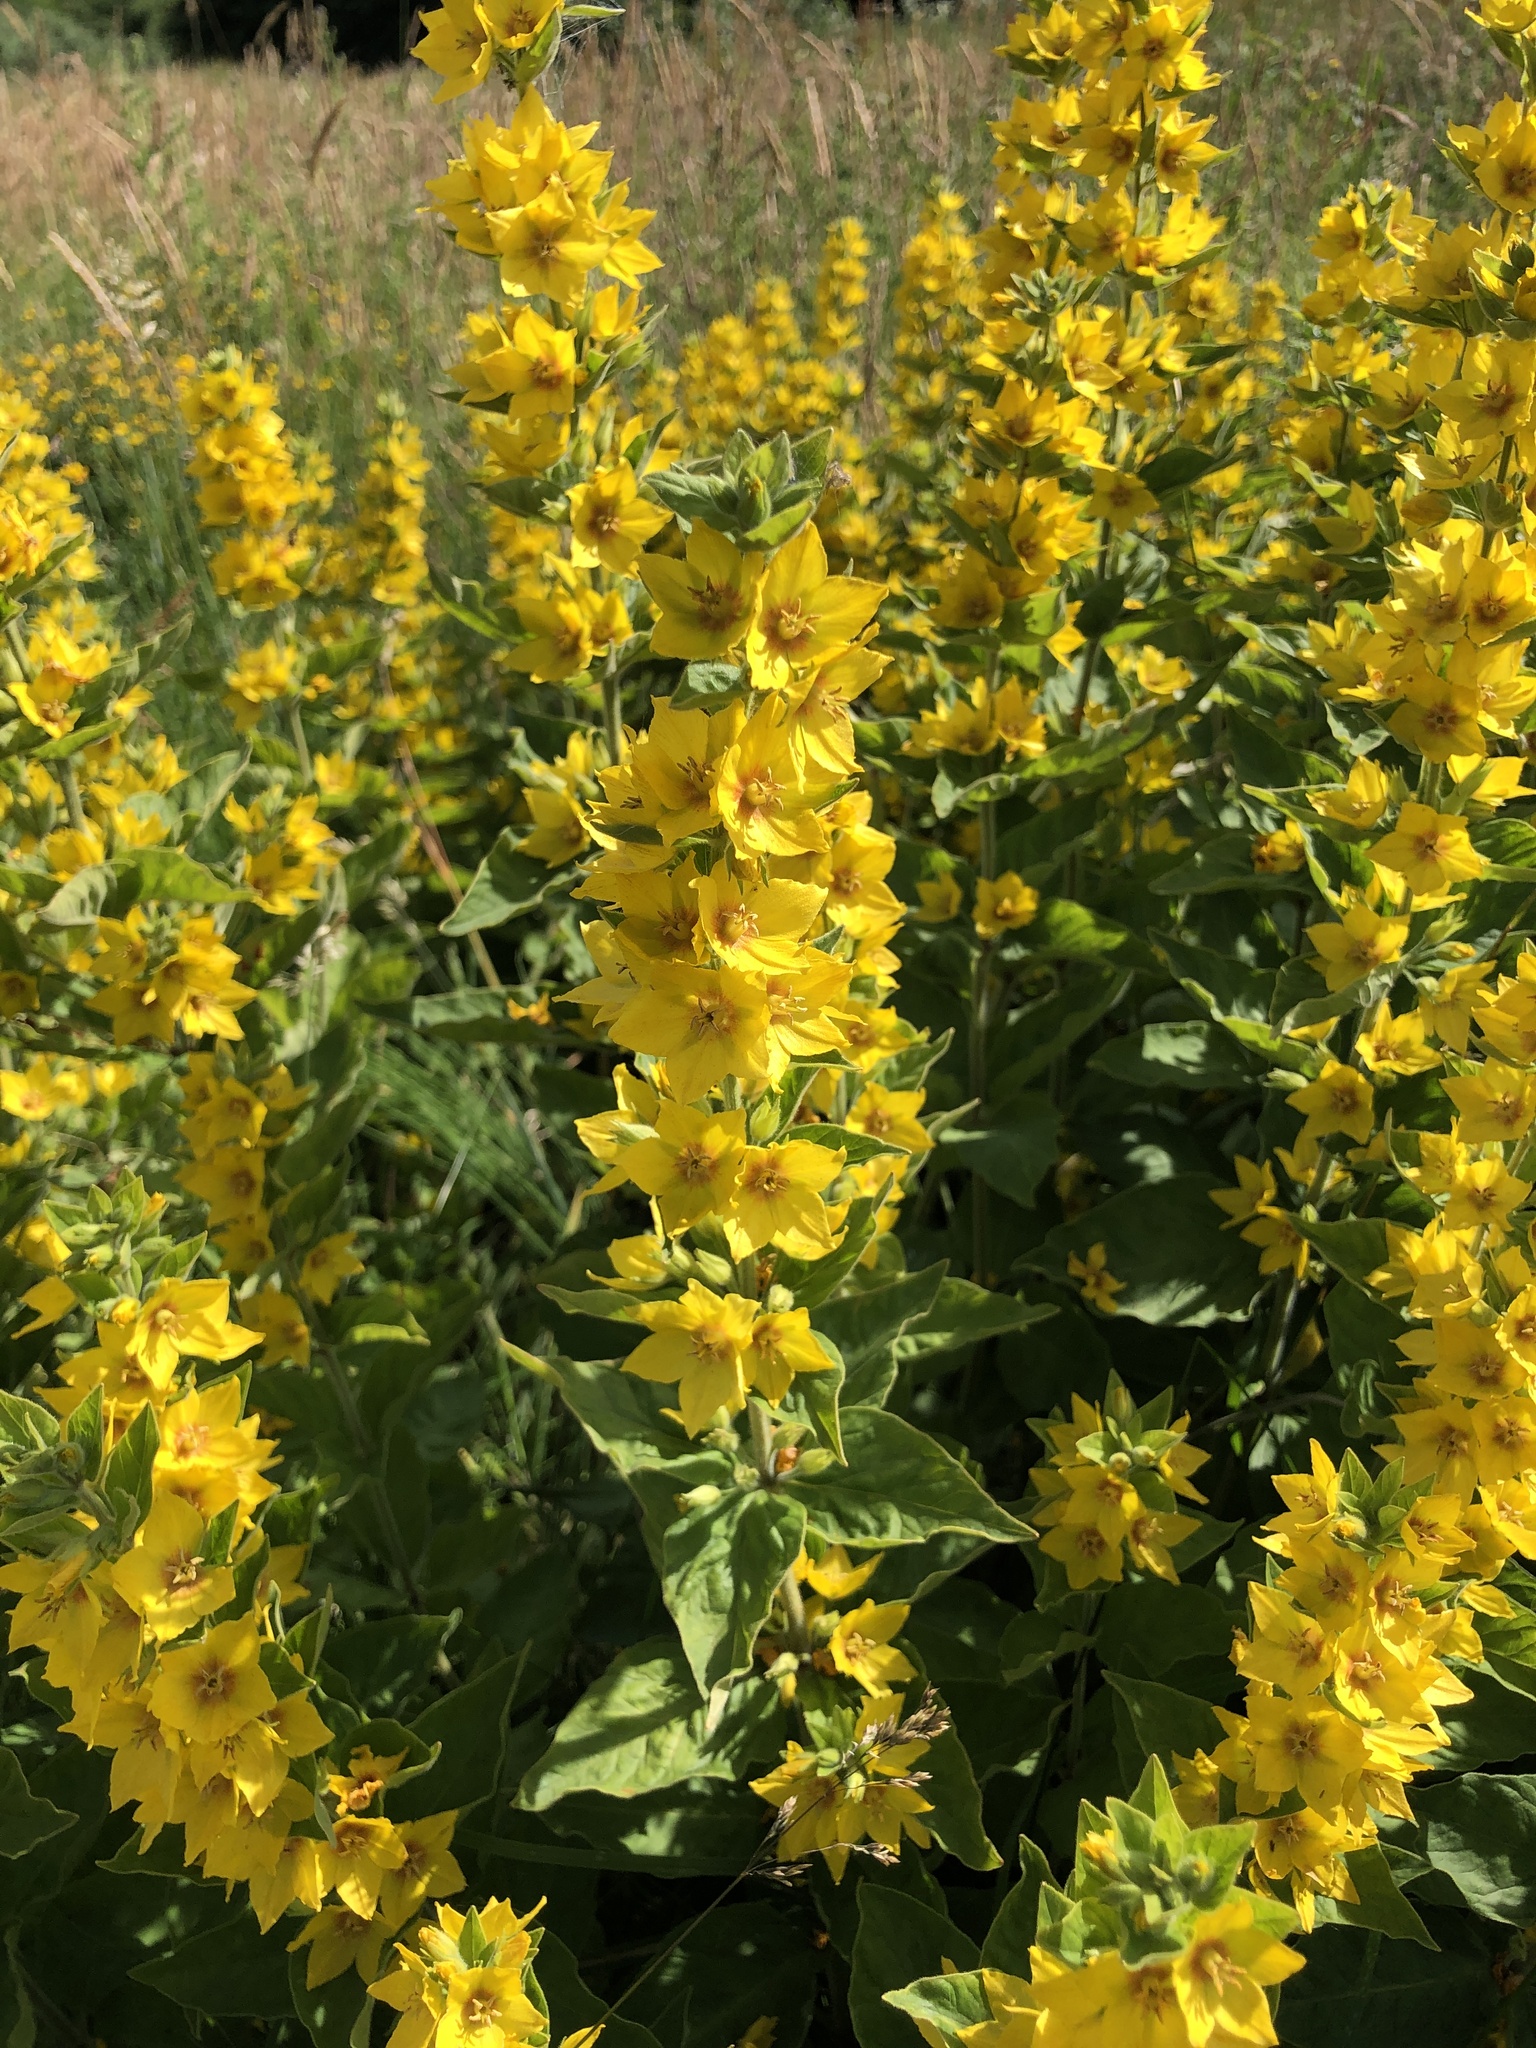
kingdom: Plantae
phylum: Tracheophyta
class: Magnoliopsida
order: Ericales
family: Primulaceae
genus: Lysimachia
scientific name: Lysimachia punctata
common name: Dotted loosestrife
